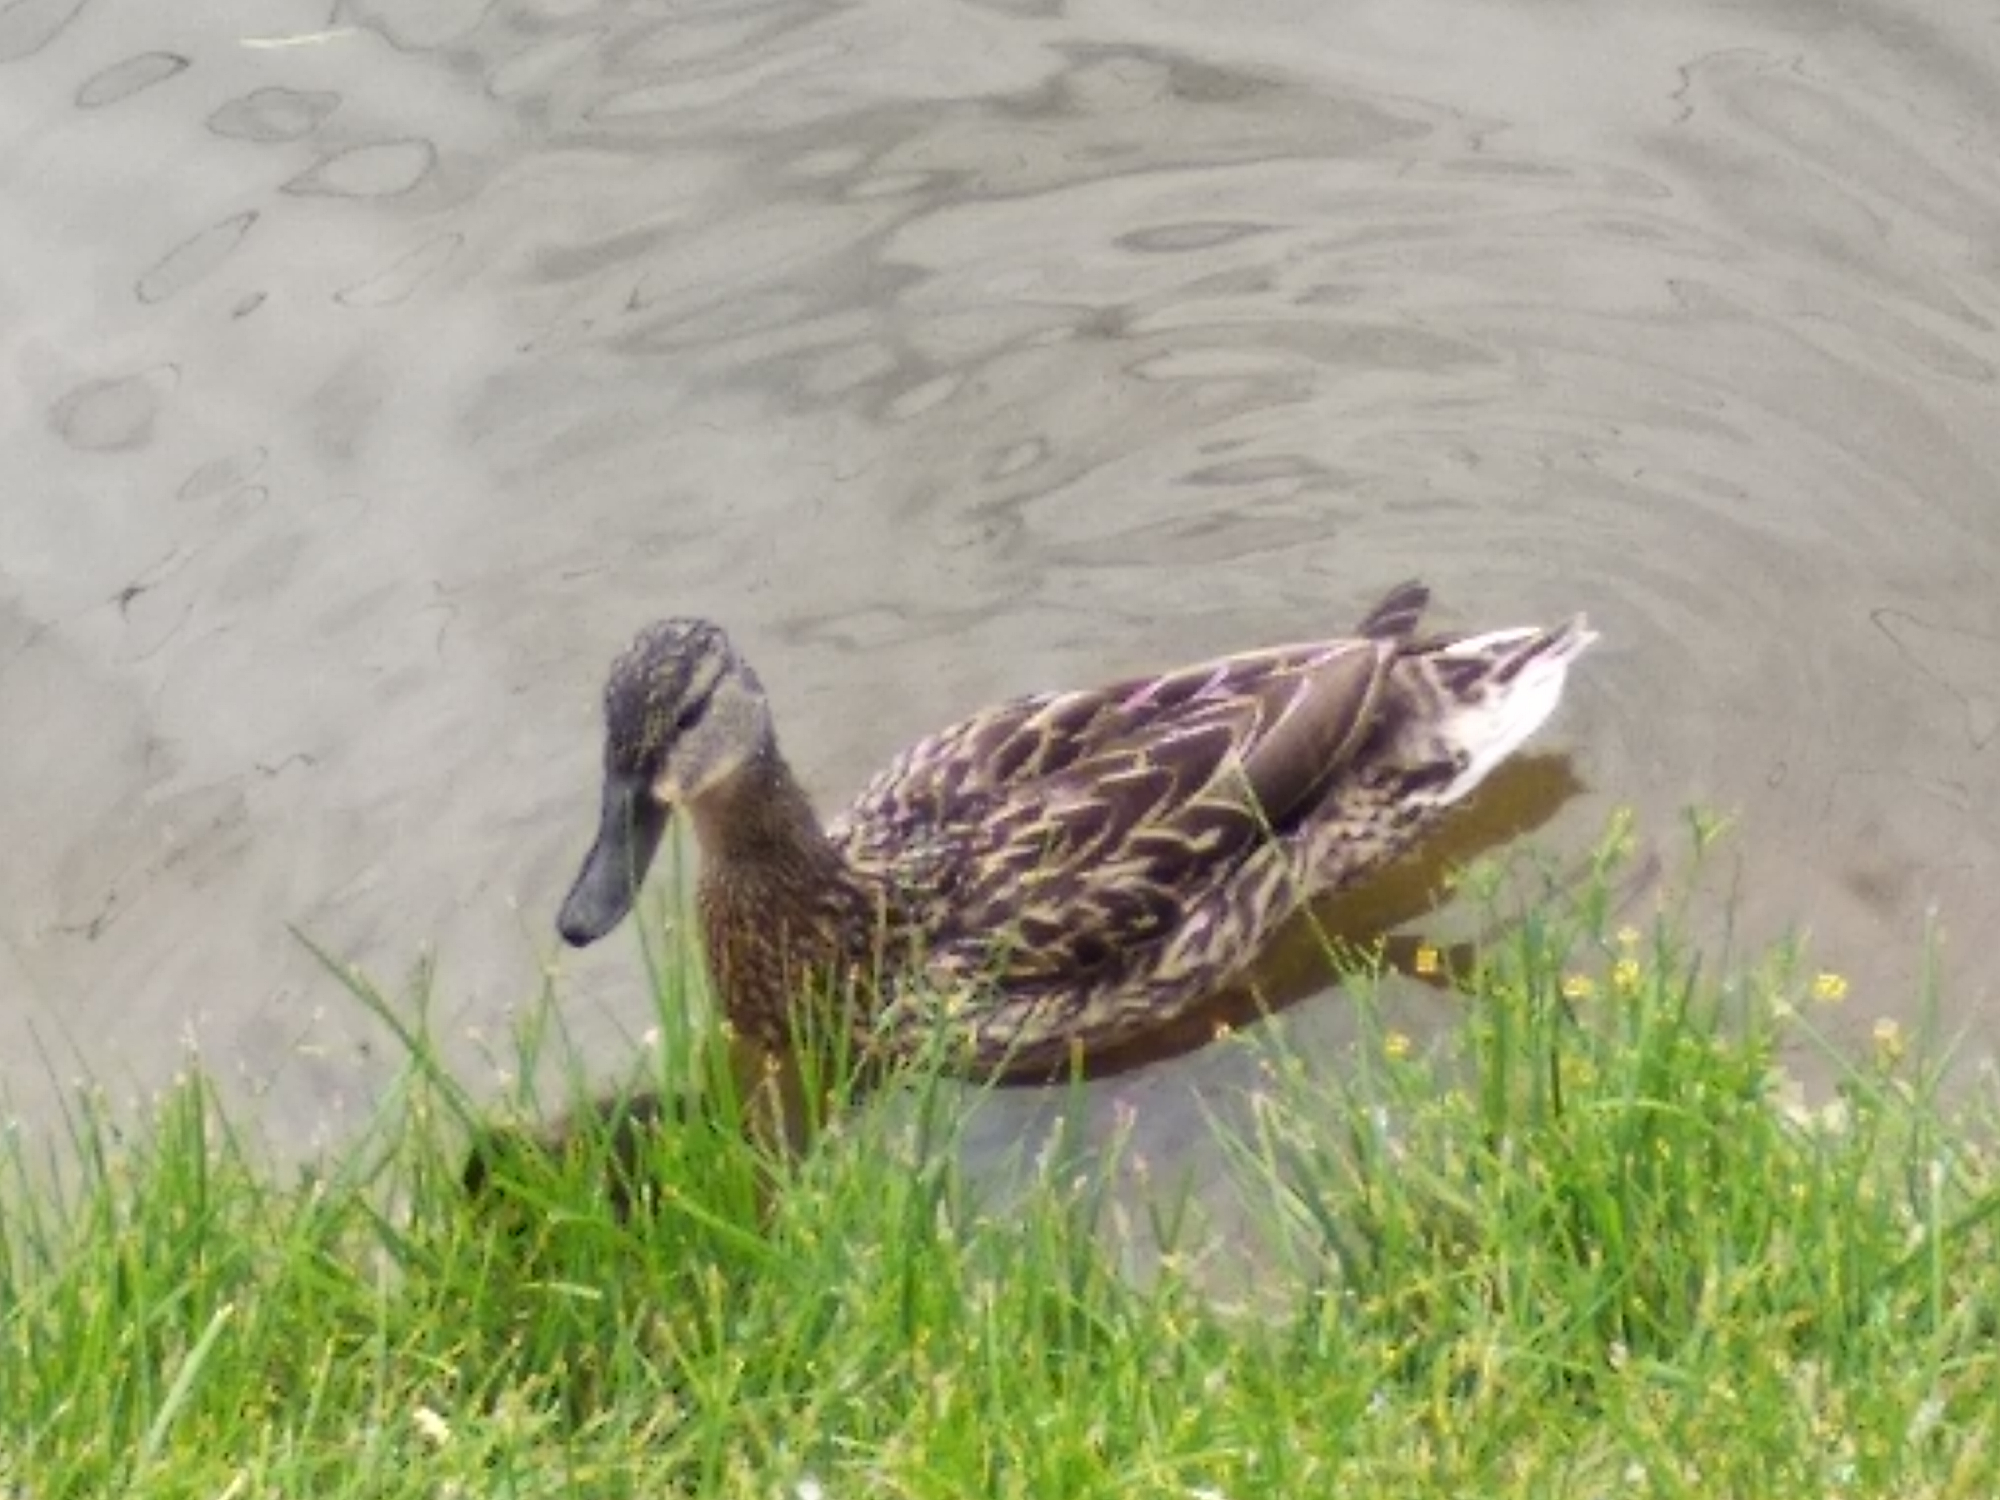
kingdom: Animalia
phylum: Chordata
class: Aves
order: Anseriformes
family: Anatidae
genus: Anas
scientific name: Anas platyrhynchos
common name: Mallard
